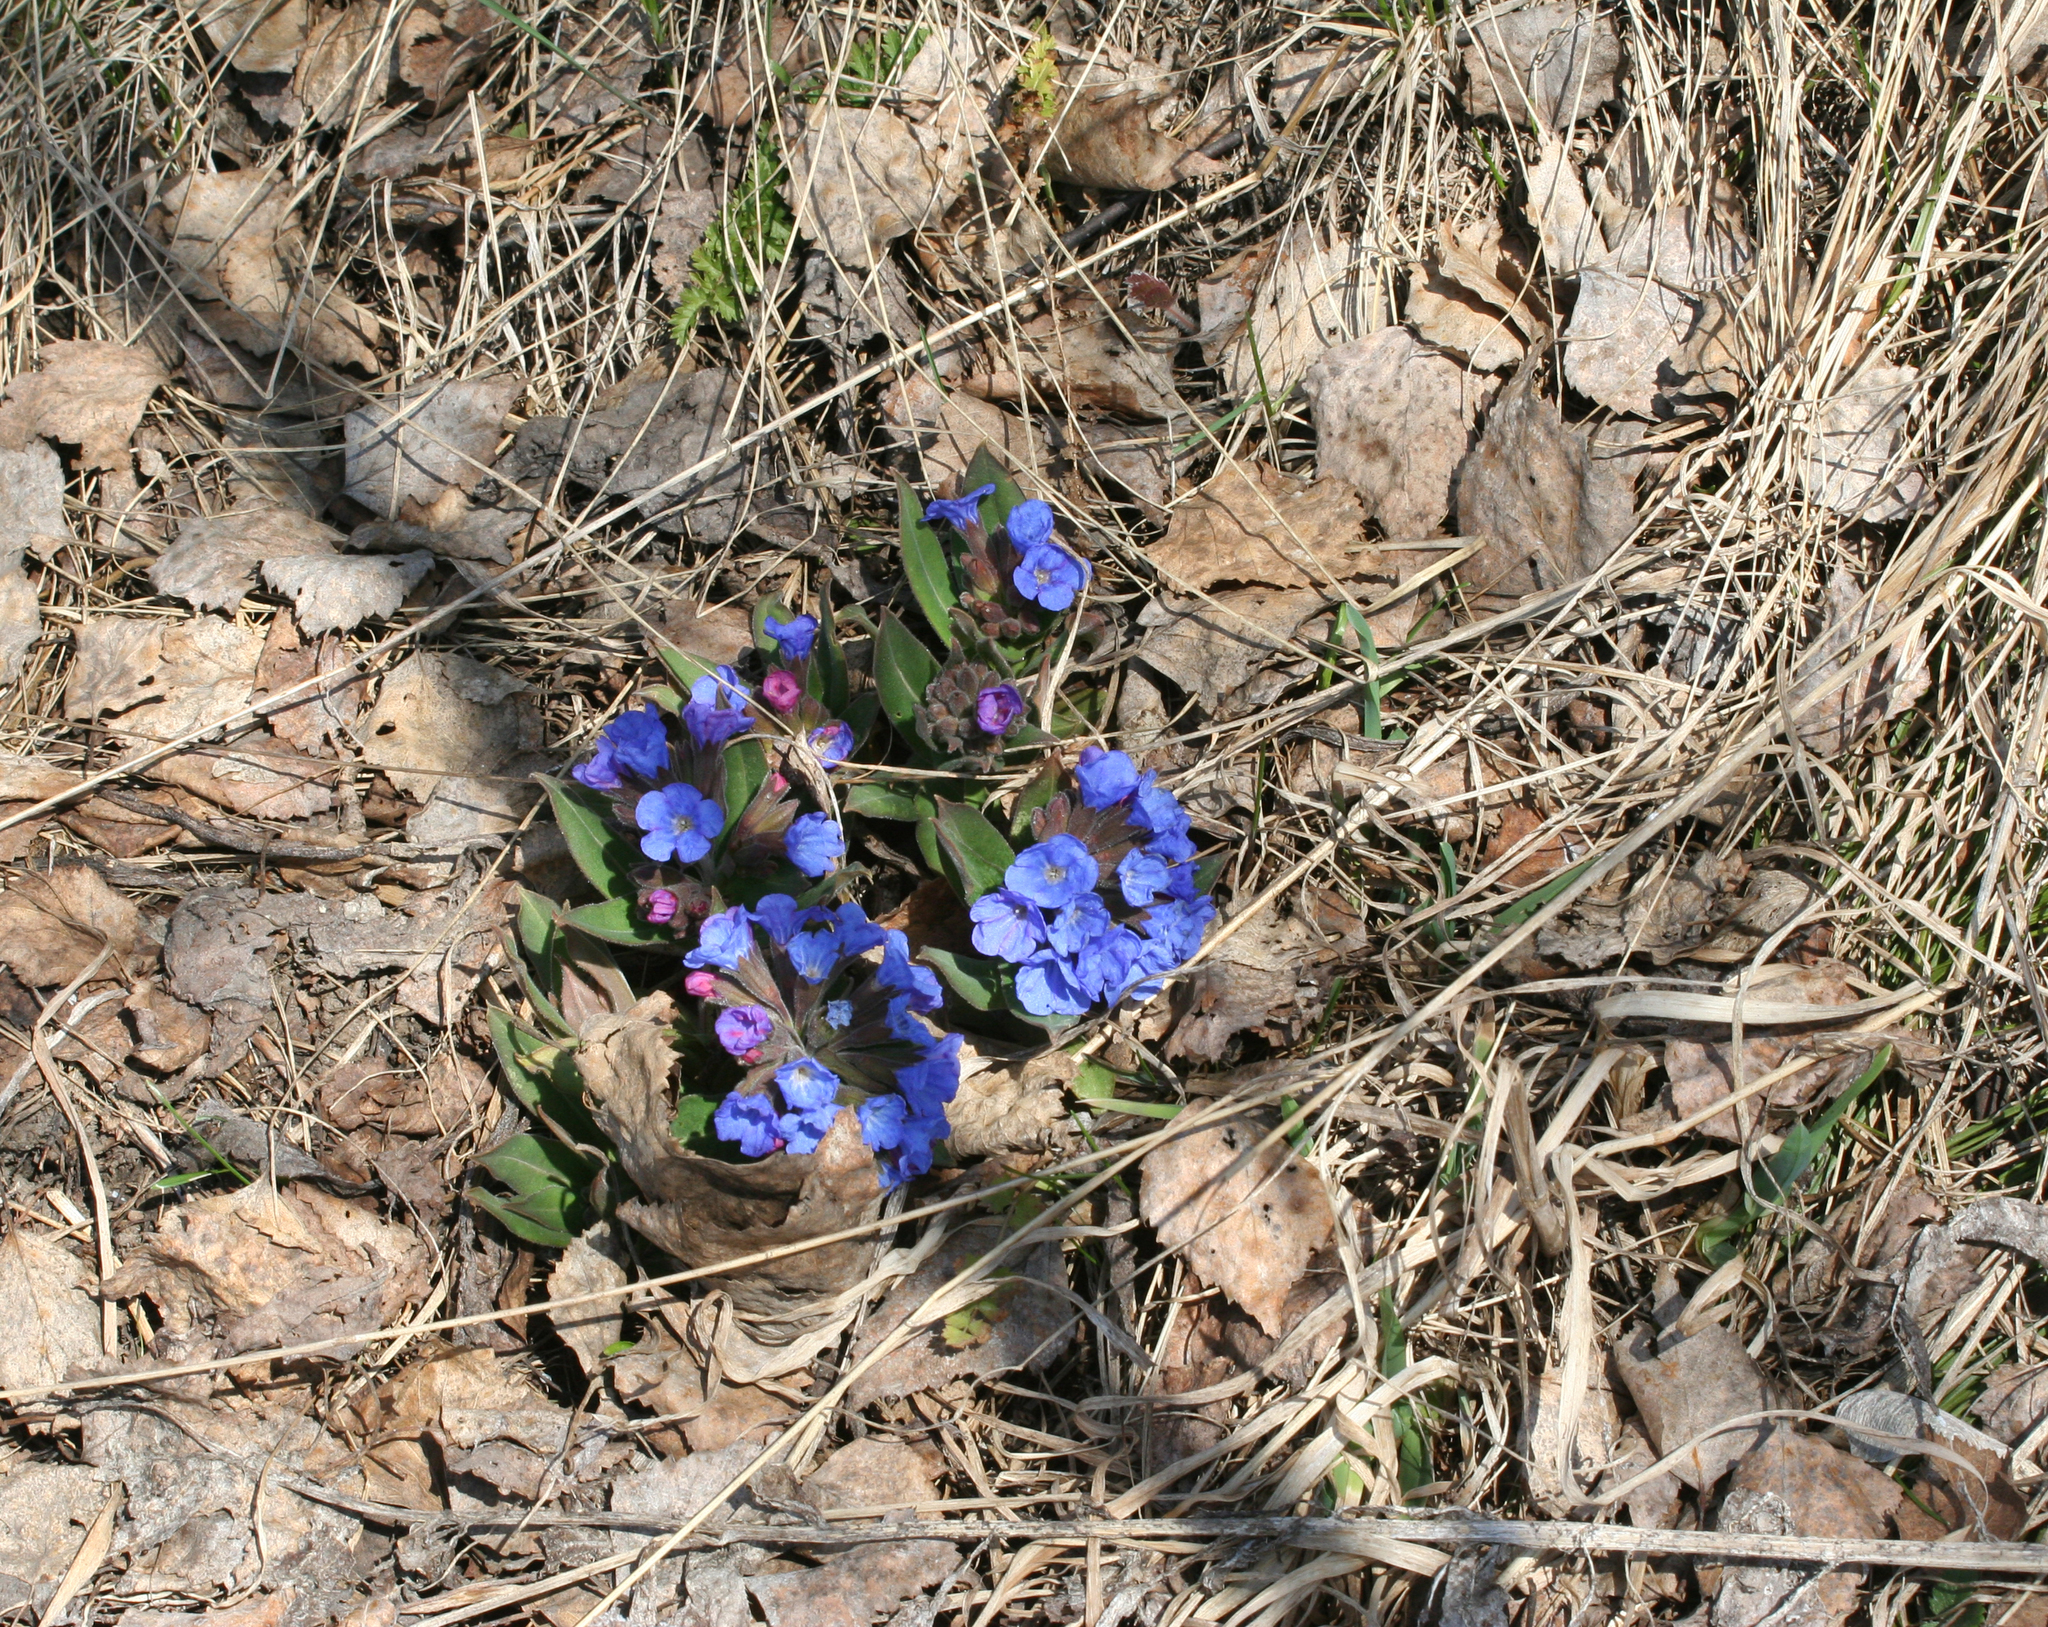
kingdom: Plantae
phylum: Tracheophyta
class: Magnoliopsida
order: Boraginales
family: Boraginaceae
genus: Pulmonaria
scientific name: Pulmonaria mollis
